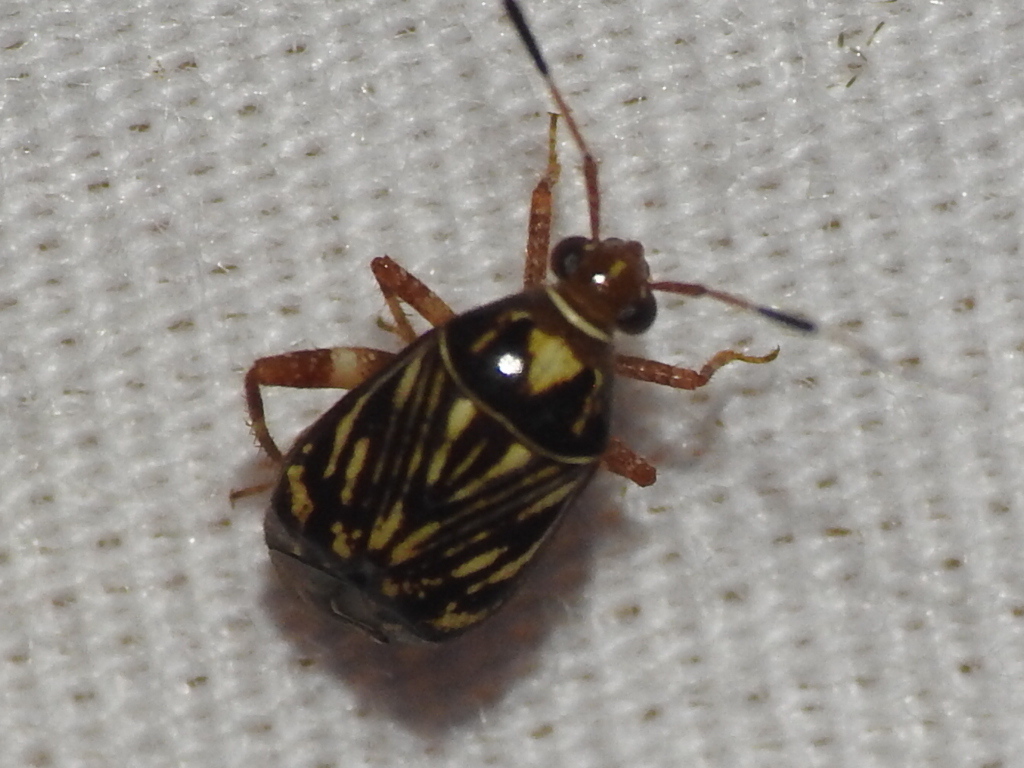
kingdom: Animalia
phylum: Arthropoda
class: Insecta
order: Hemiptera
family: Miridae
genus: Taedia
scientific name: Taedia virgulata
